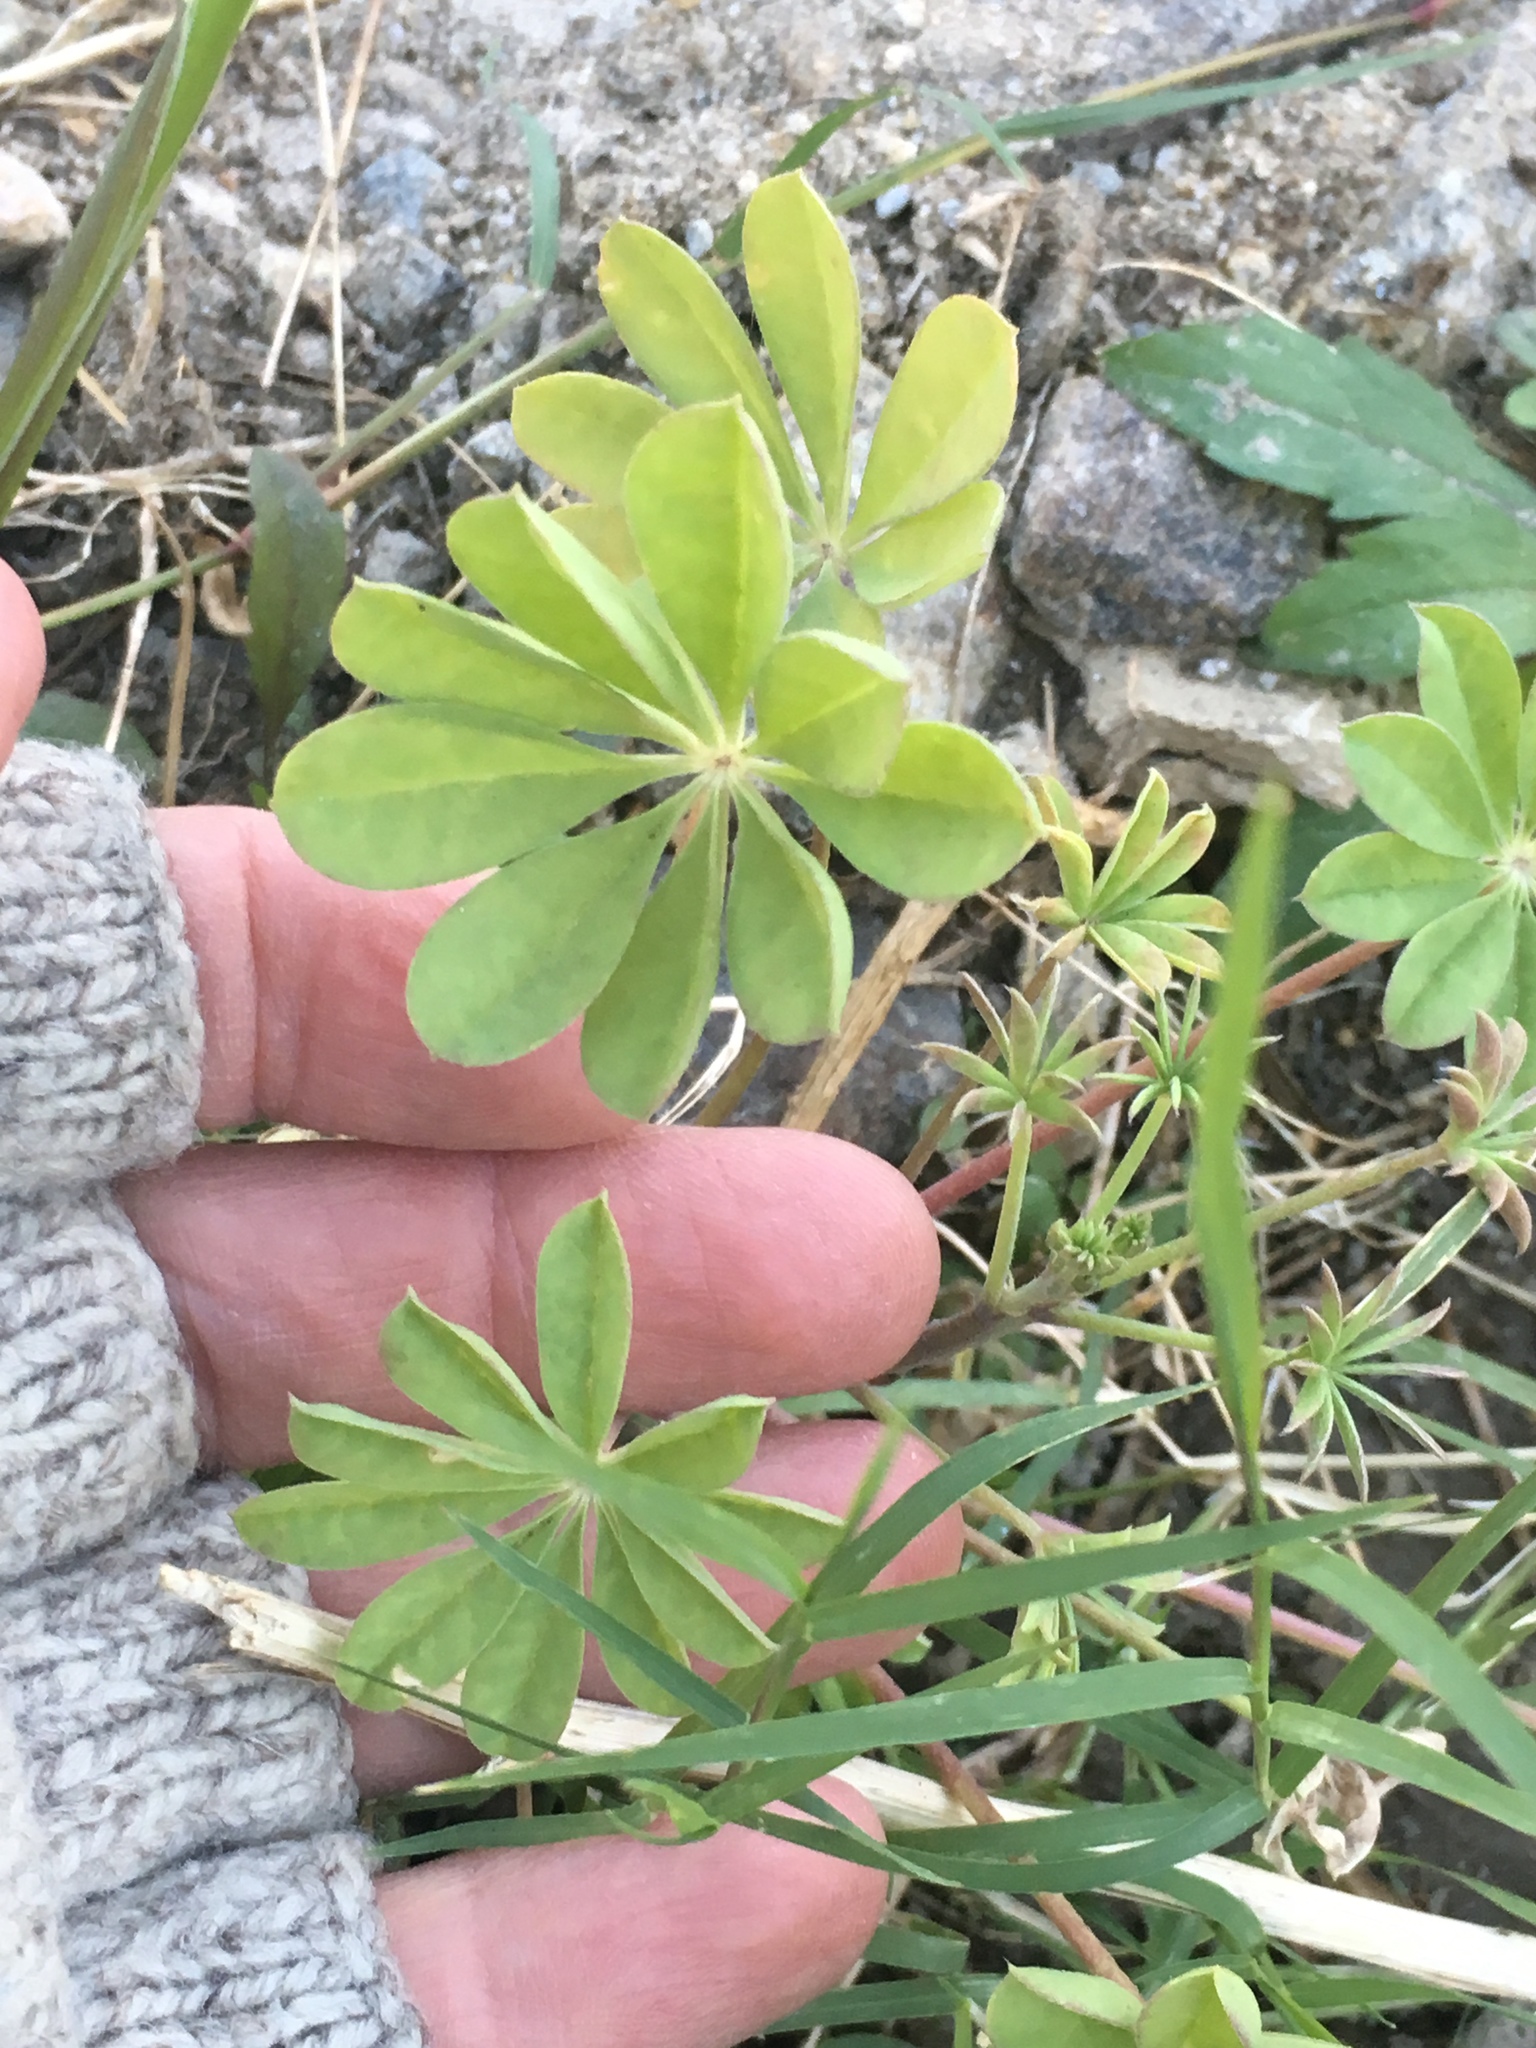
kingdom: Plantae
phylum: Tracheophyta
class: Magnoliopsida
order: Fabales
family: Fabaceae
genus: Lupinus
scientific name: Lupinus arizonicus
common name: Arizona lupine
